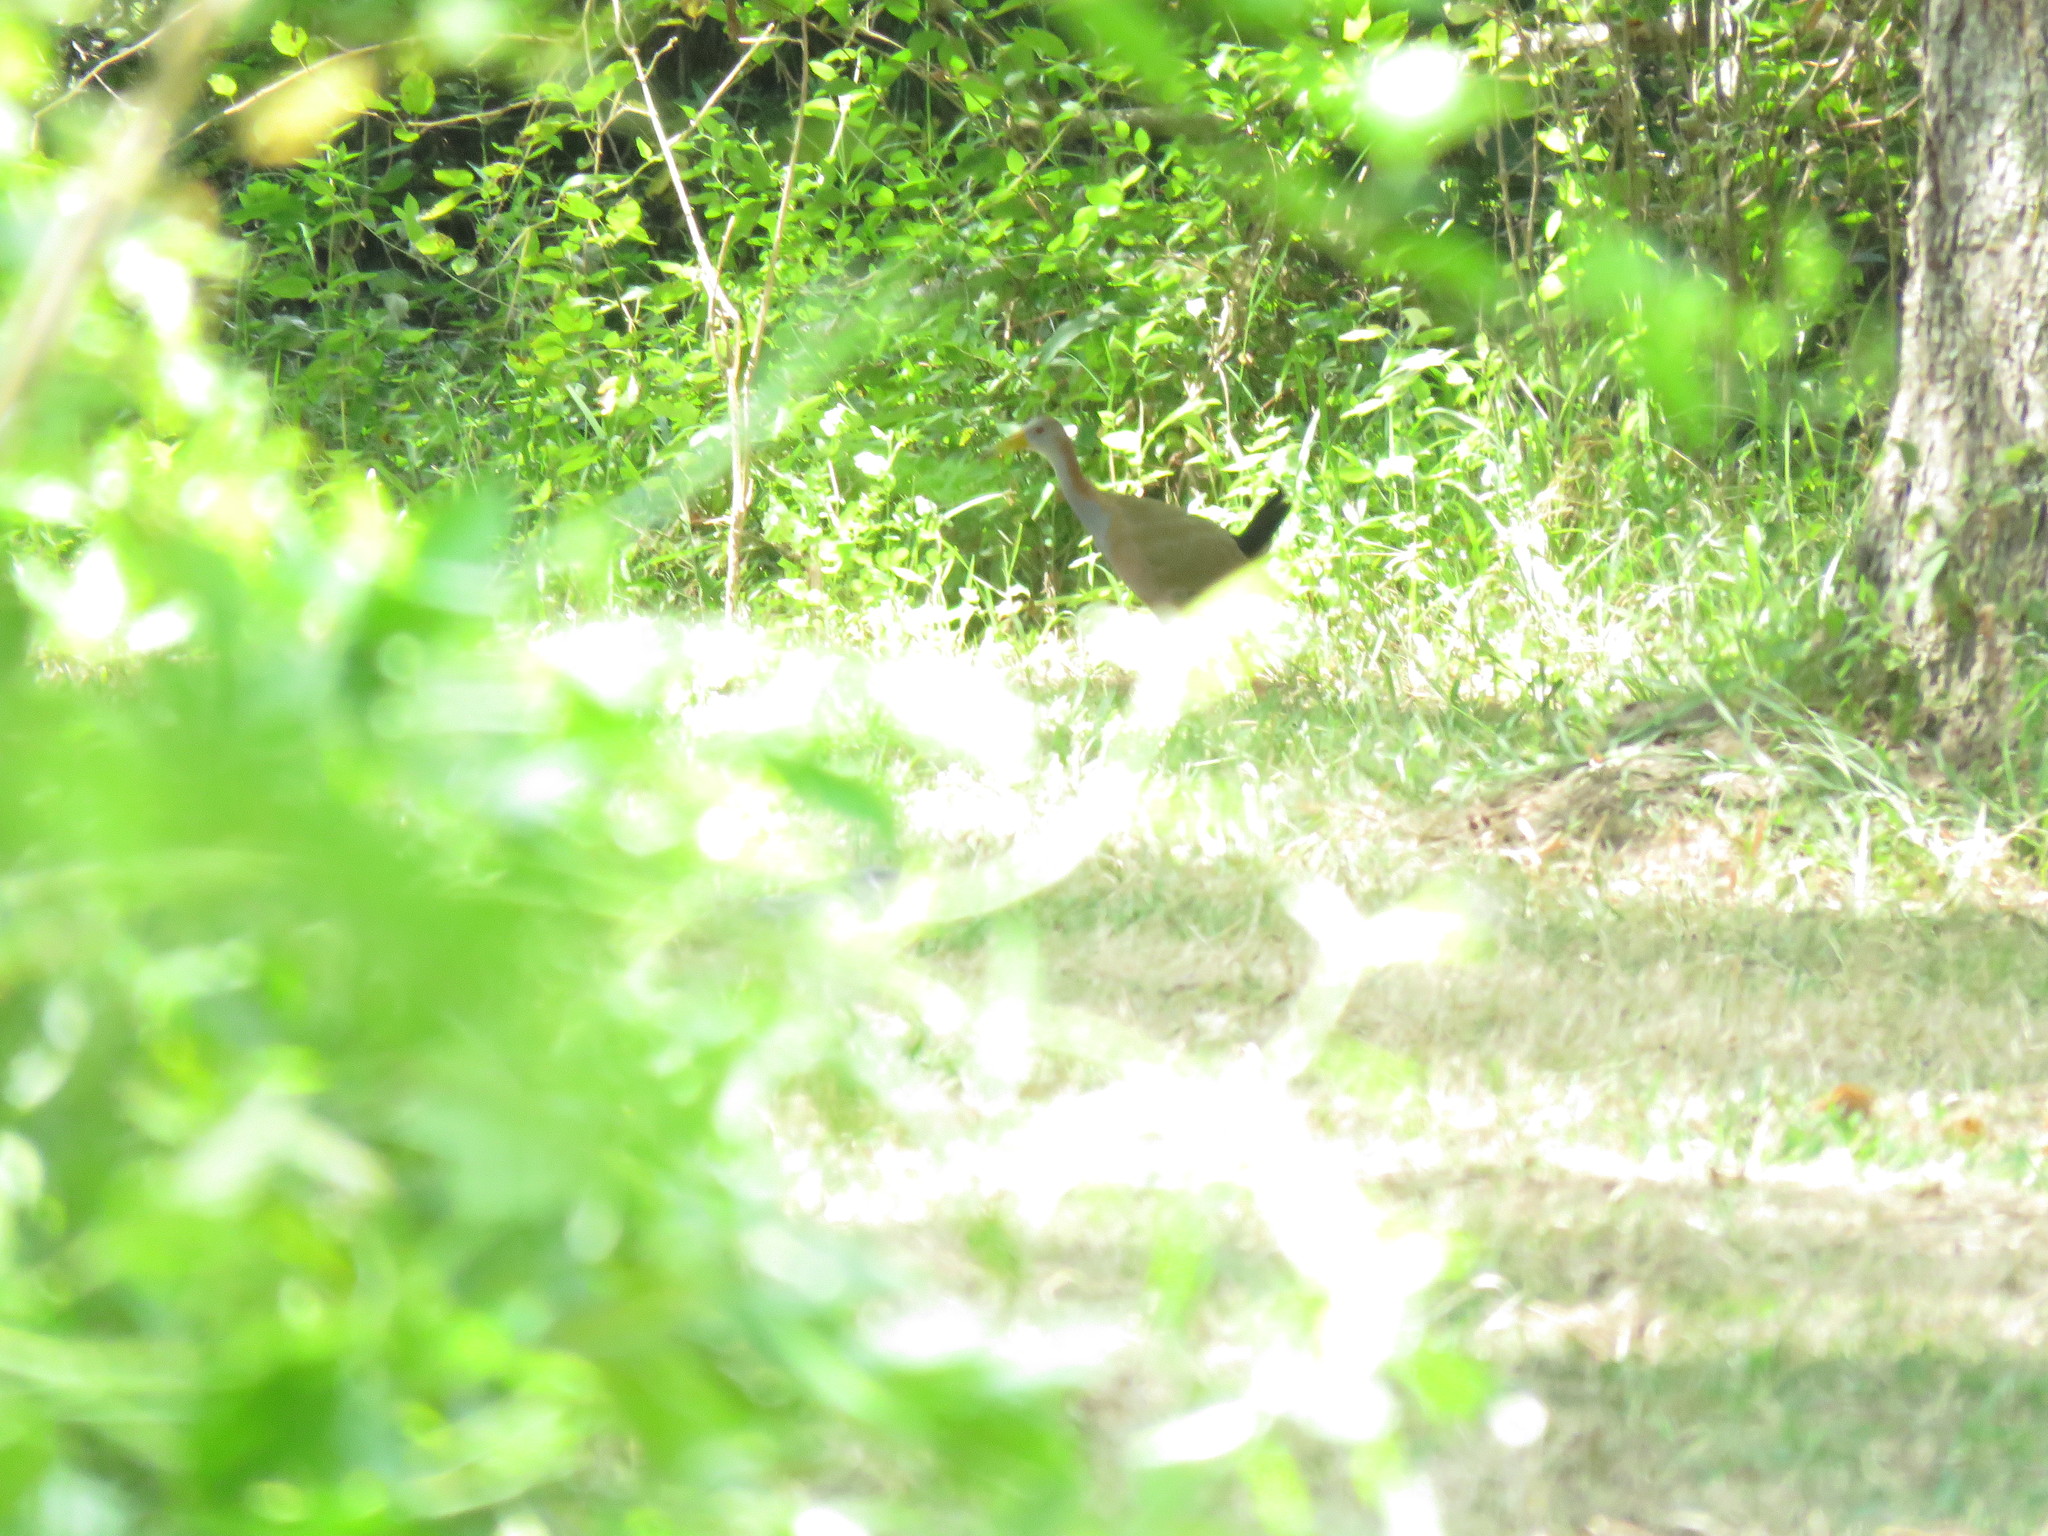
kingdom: Animalia
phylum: Chordata
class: Aves
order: Gruiformes
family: Rallidae
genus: Aramides
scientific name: Aramides ypecaha
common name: Giant wood rail
